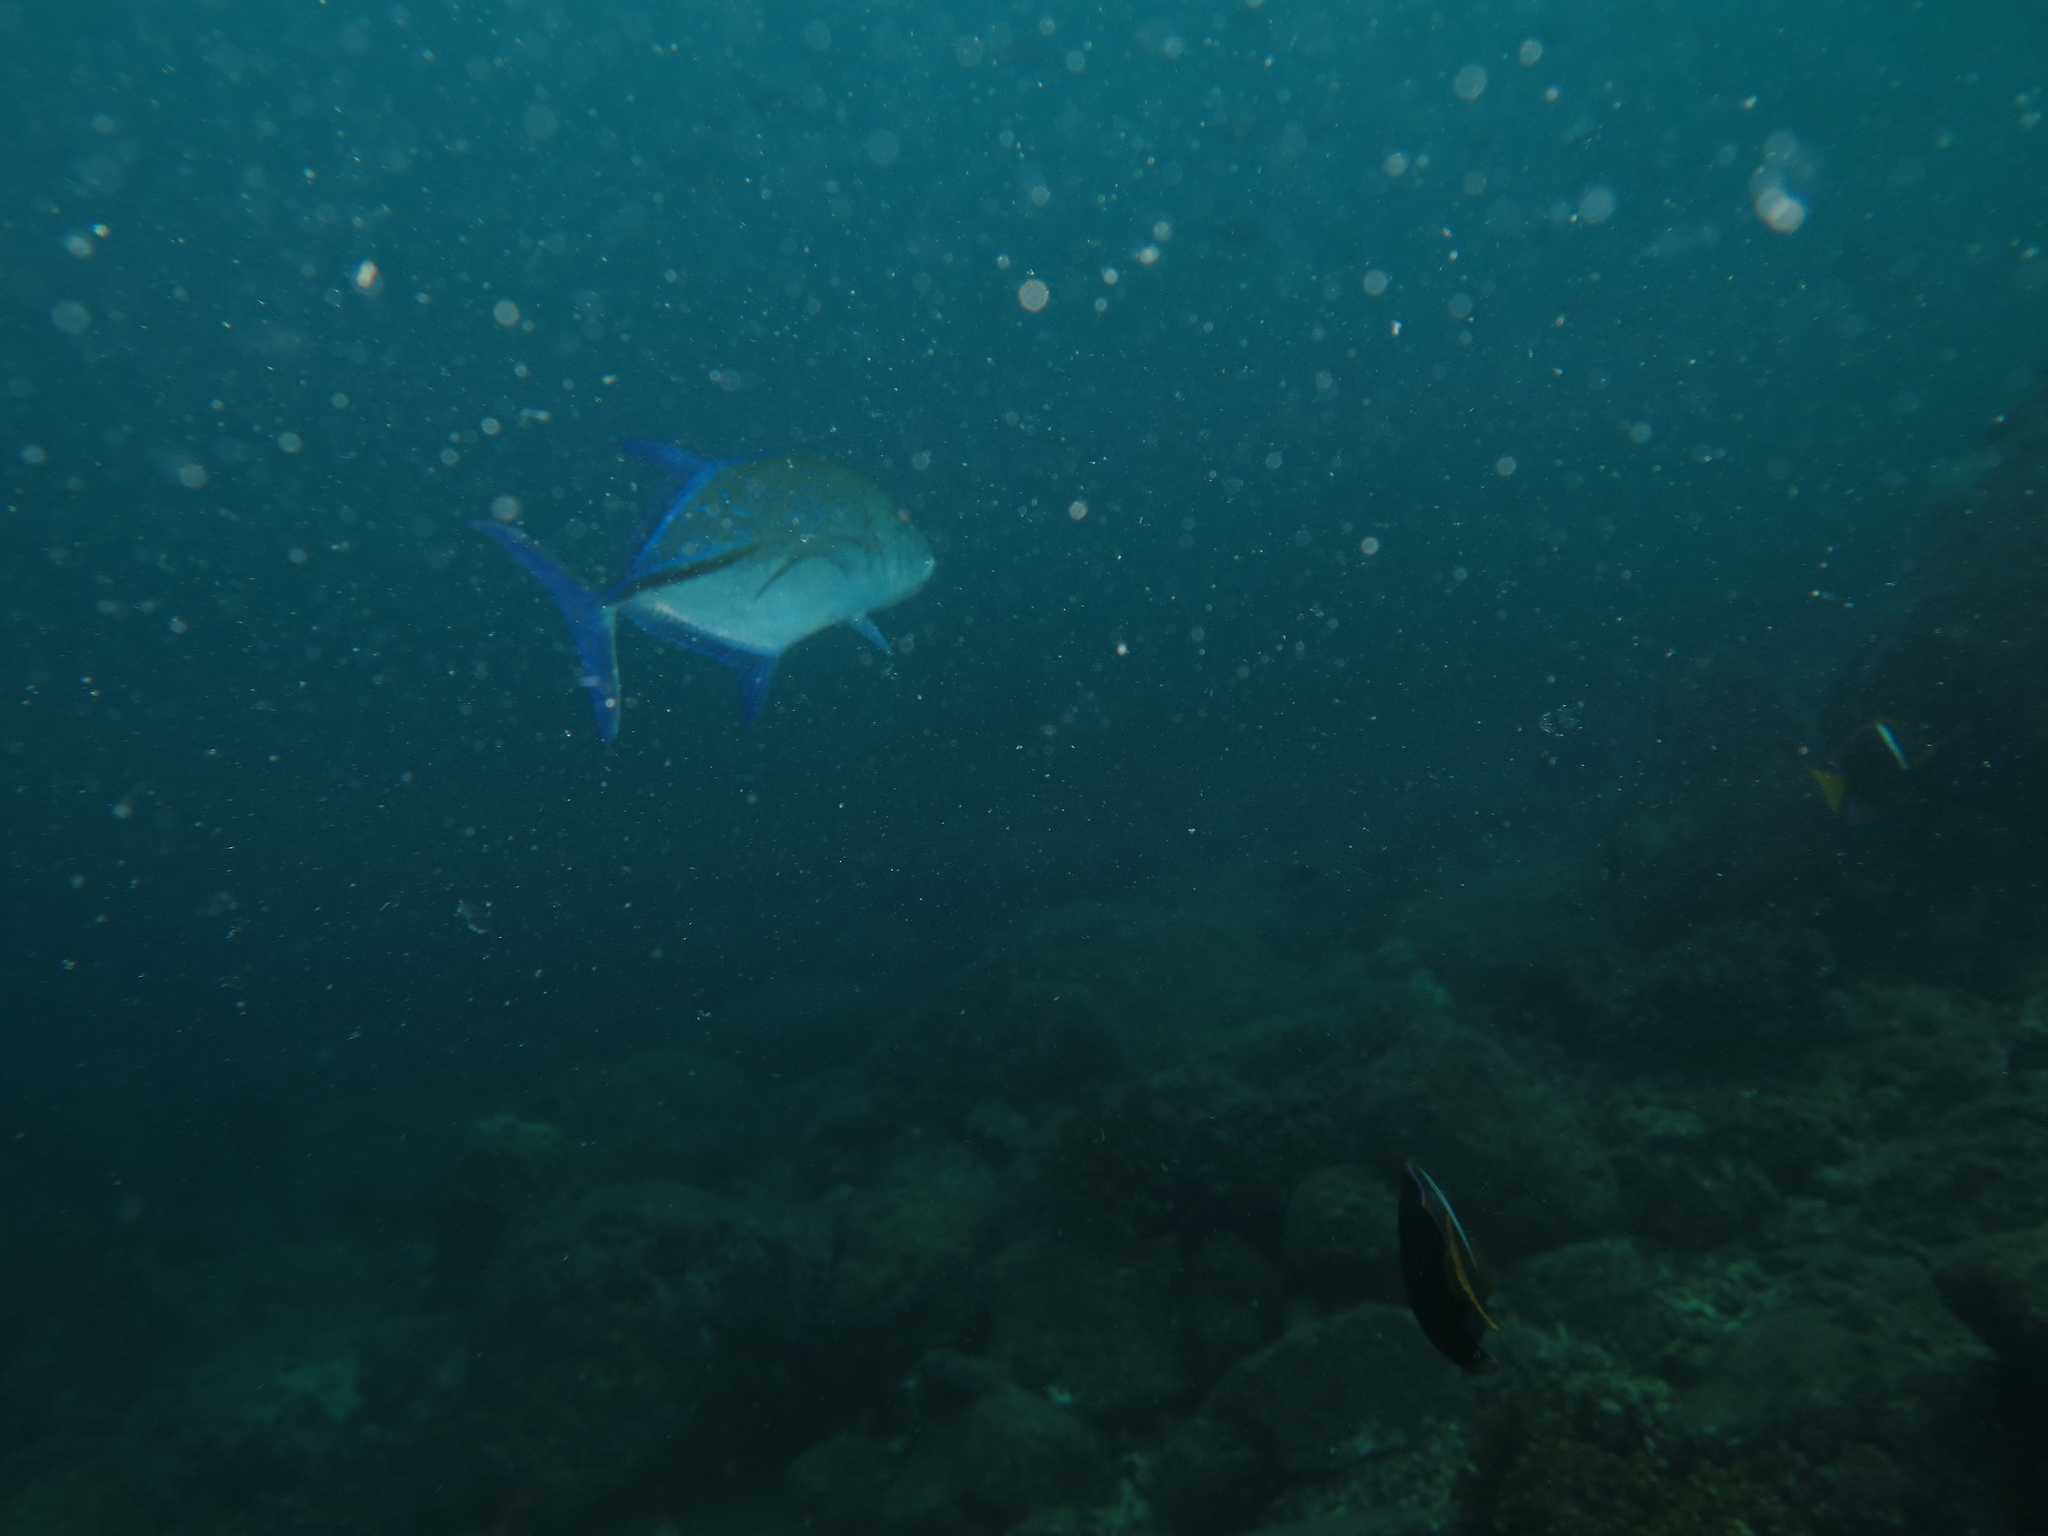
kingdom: Animalia
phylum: Chordata
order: Perciformes
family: Carangidae
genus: Caranx
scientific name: Caranx melampygus
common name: Bluefin trevally
